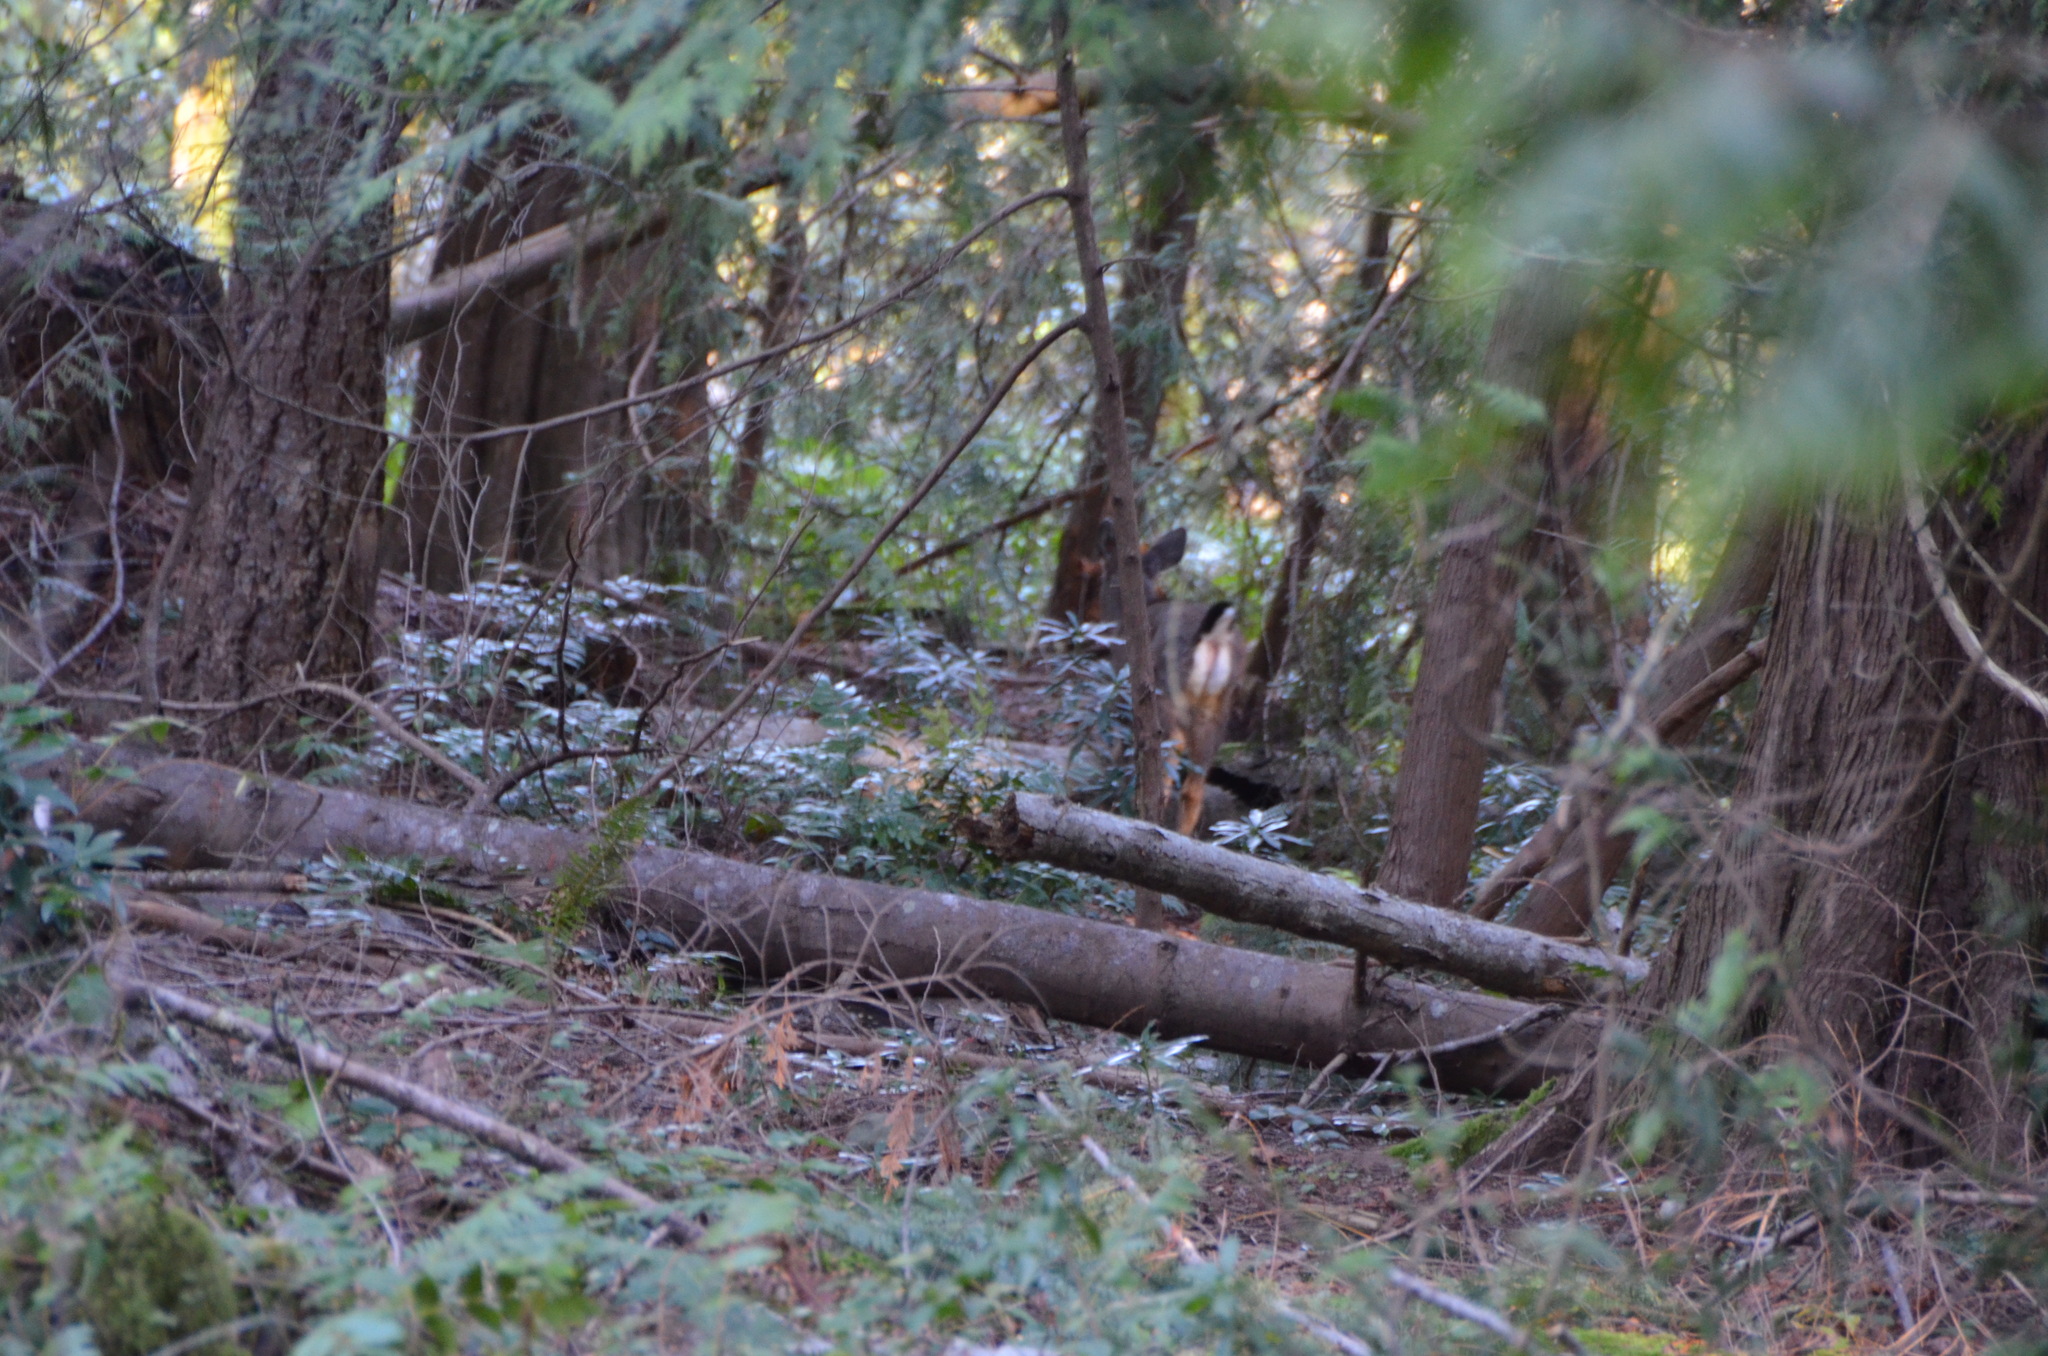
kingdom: Animalia
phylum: Chordata
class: Mammalia
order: Artiodactyla
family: Cervidae
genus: Odocoileus
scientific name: Odocoileus hemionus
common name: Mule deer
